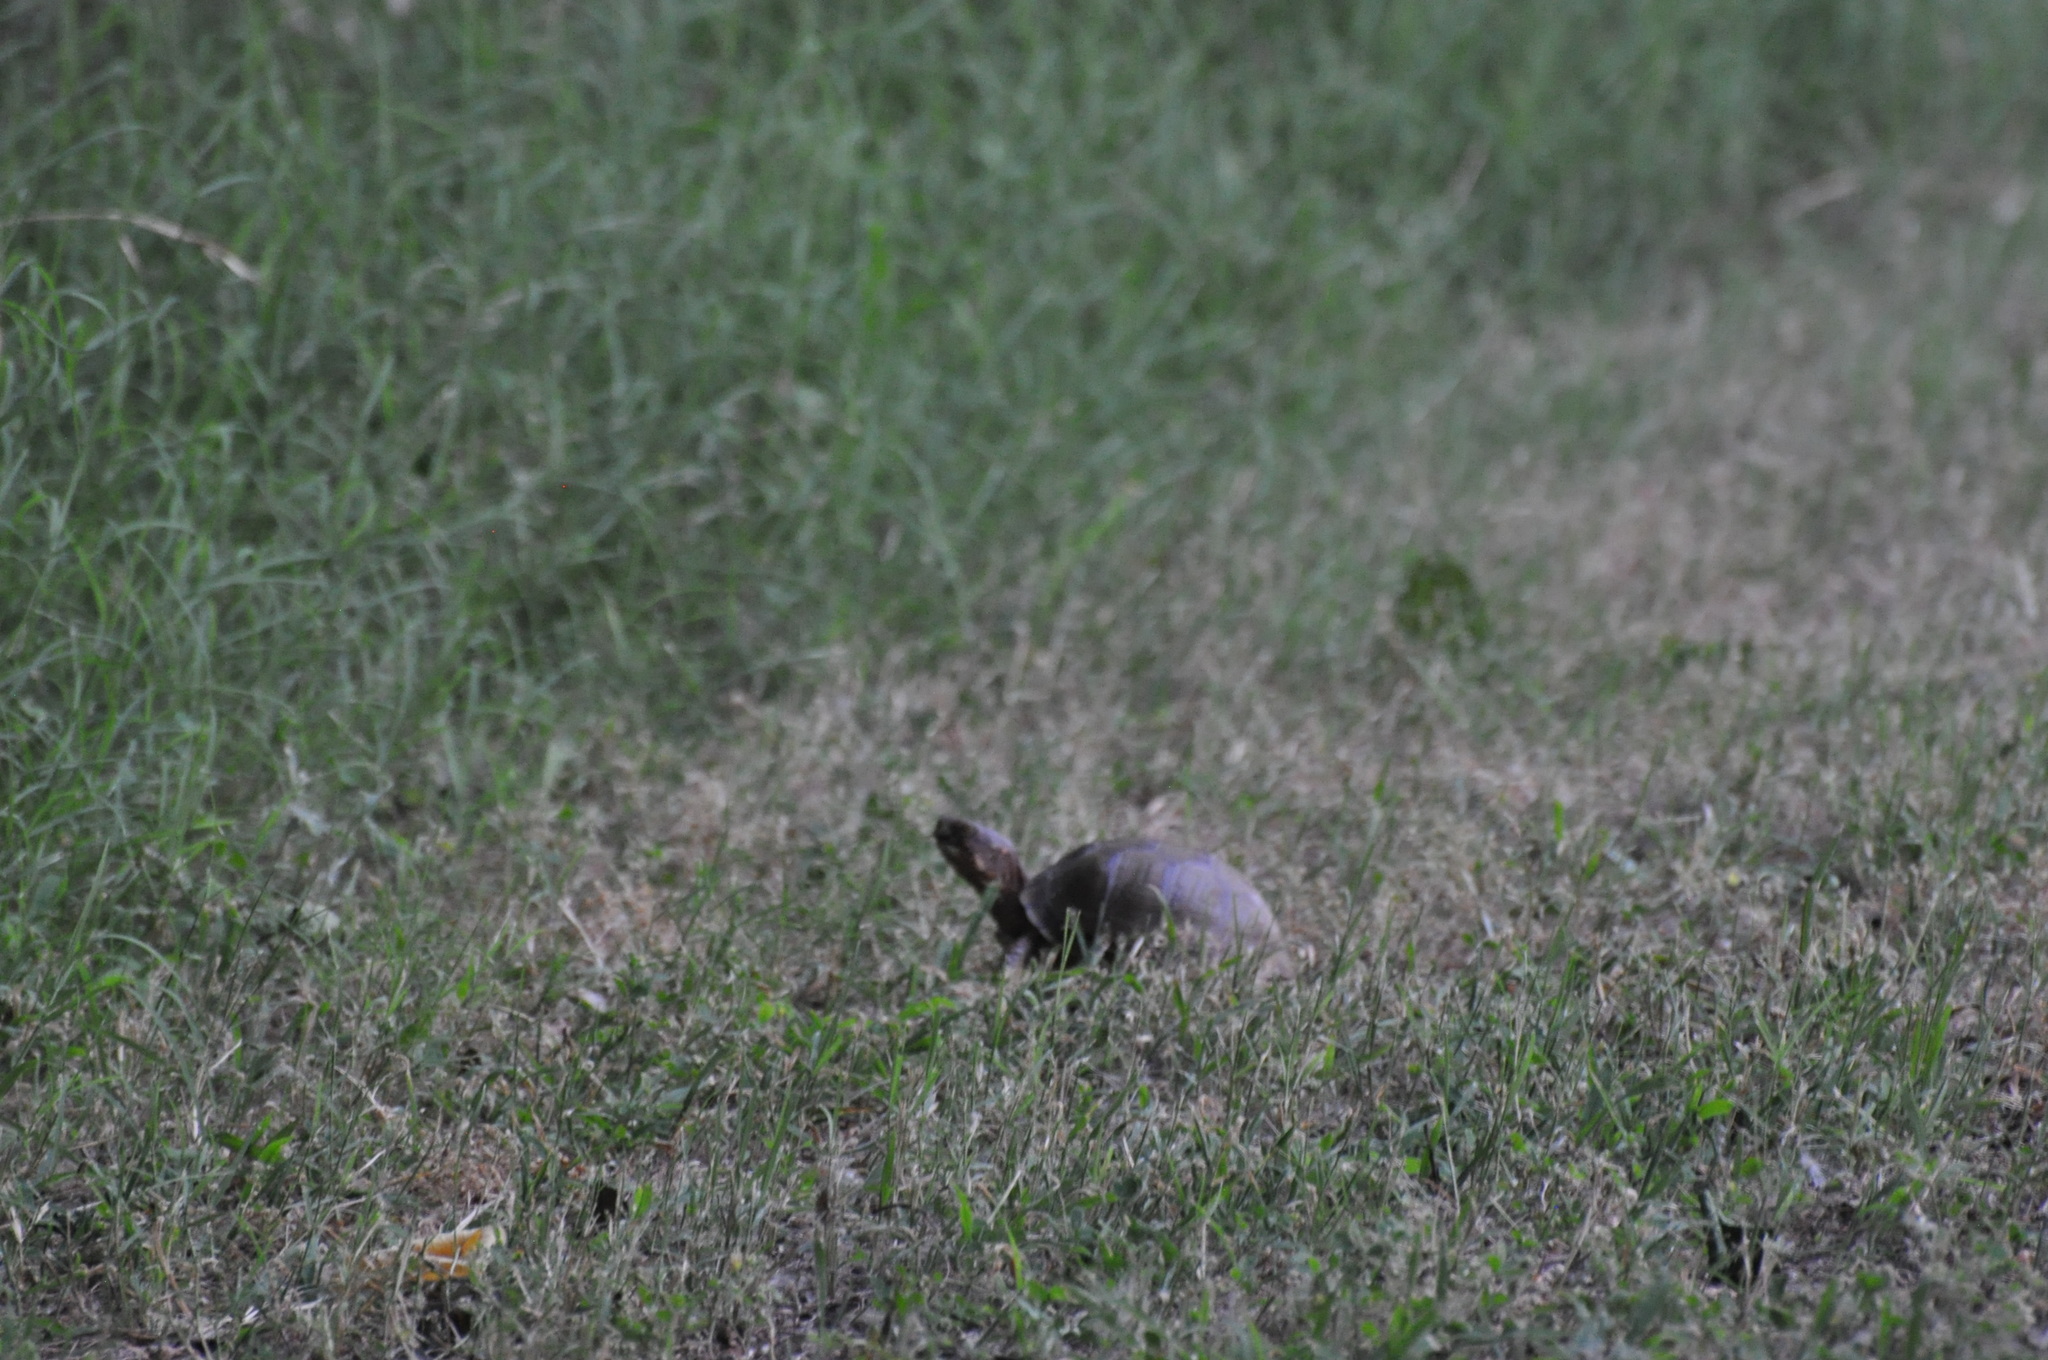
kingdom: Animalia
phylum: Chordata
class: Testudines
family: Emydidae
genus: Terrapene
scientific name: Terrapene carolina
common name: Common box turtle
